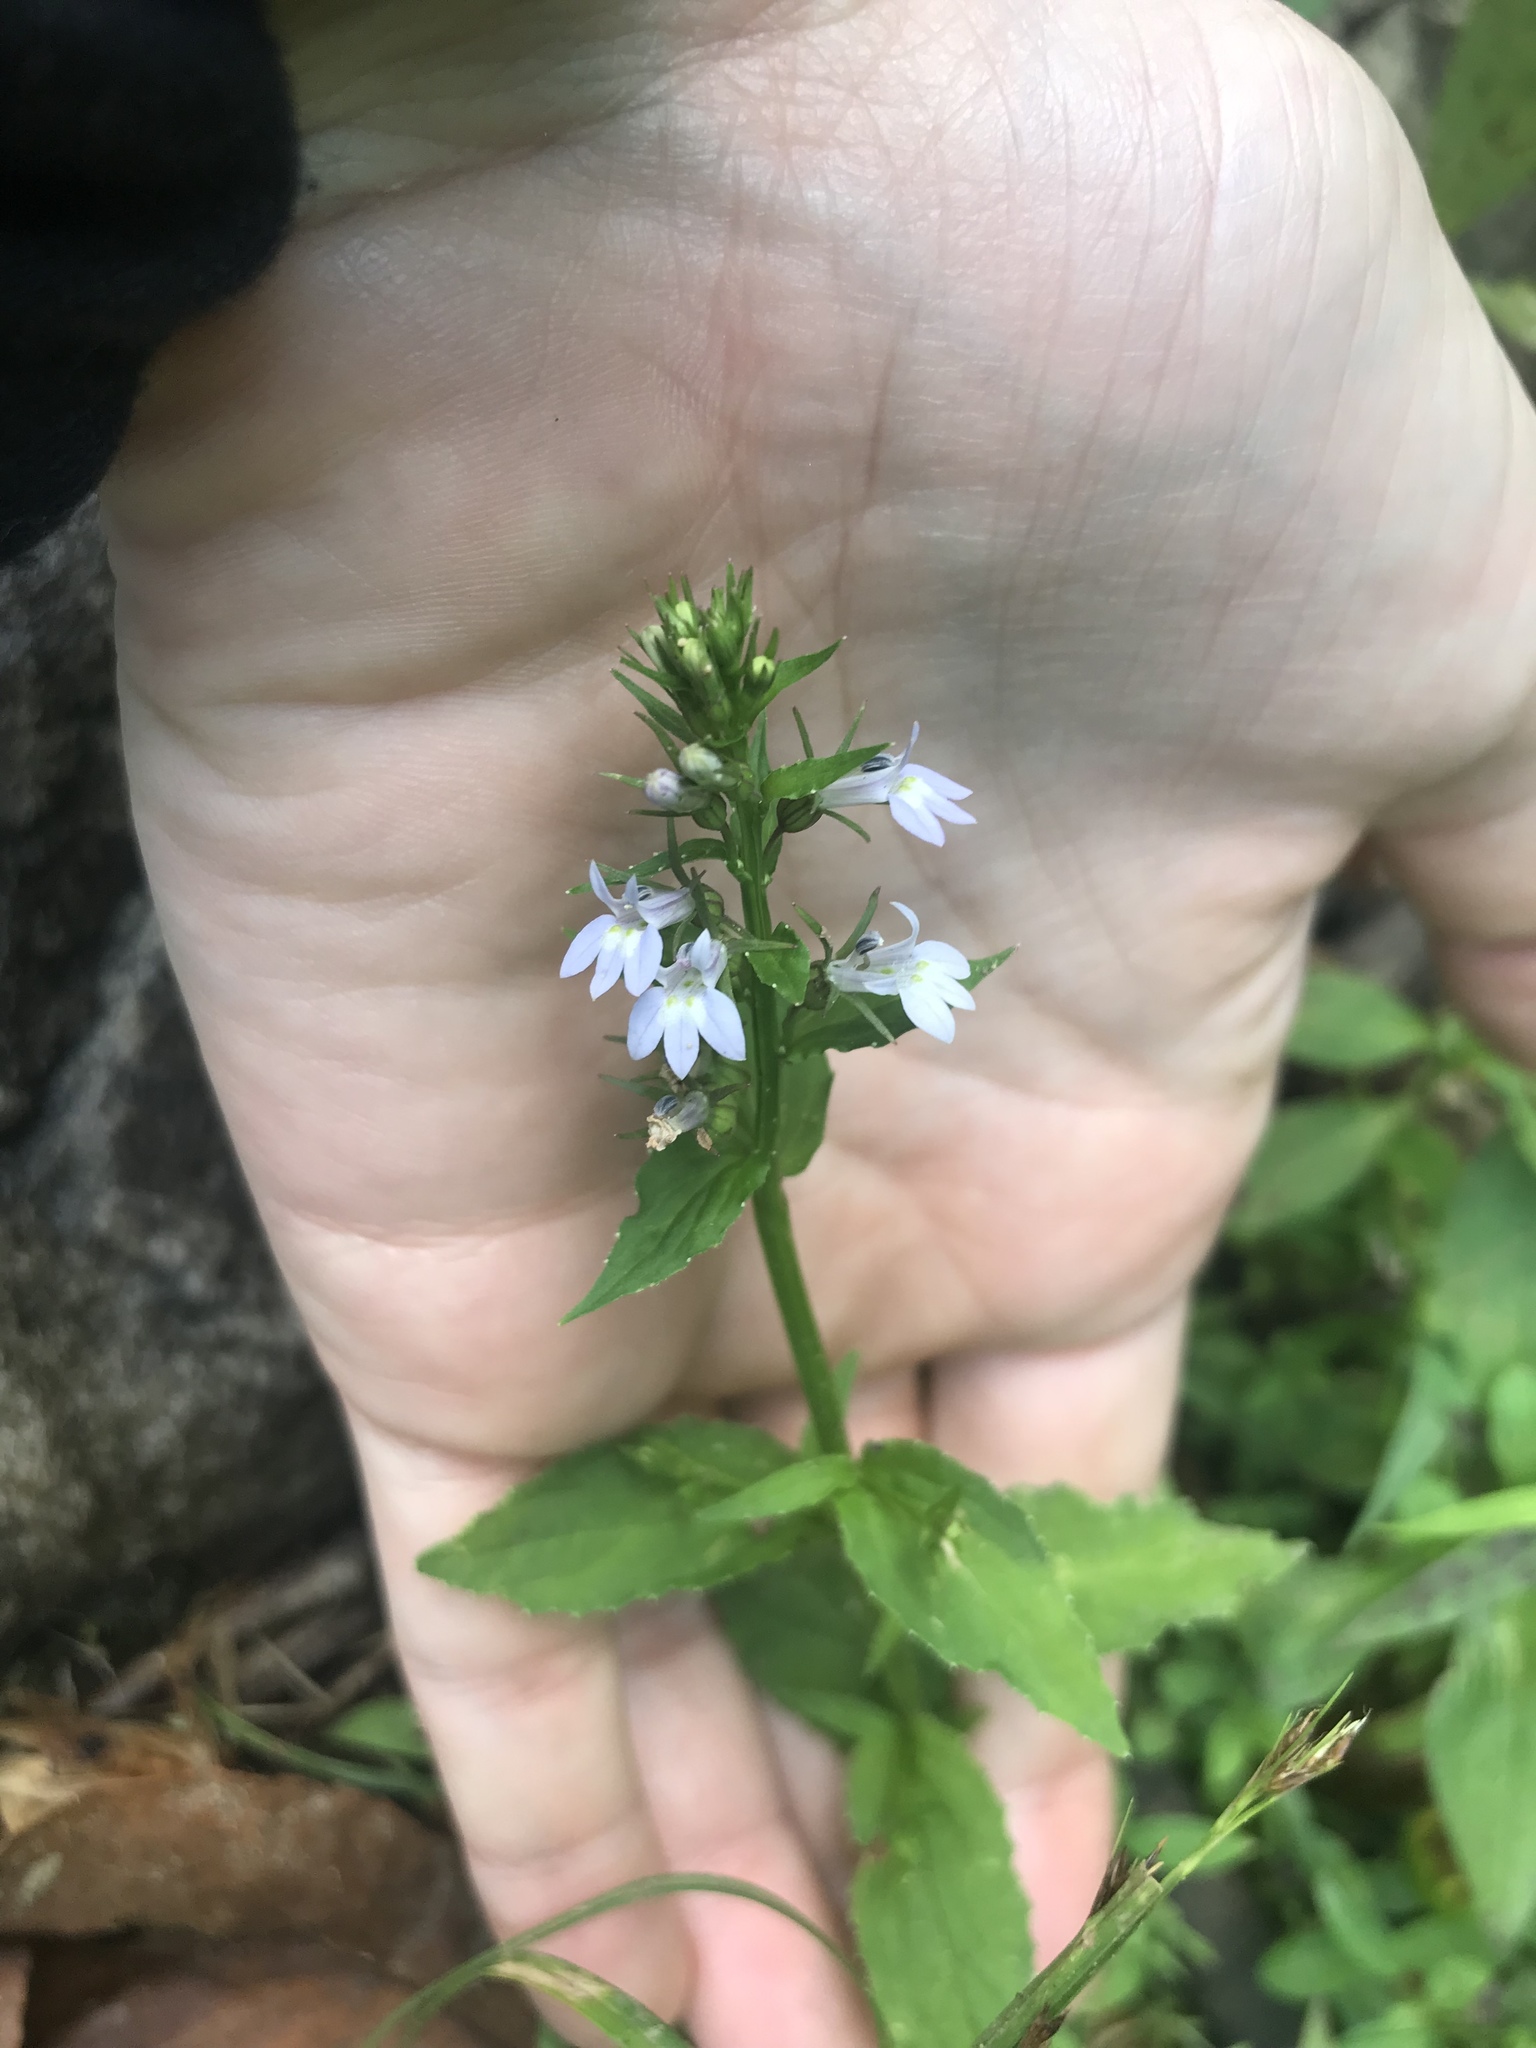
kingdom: Plantae
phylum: Tracheophyta
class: Magnoliopsida
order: Asterales
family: Campanulaceae
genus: Lobelia
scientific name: Lobelia inflata
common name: Indian tobacco
